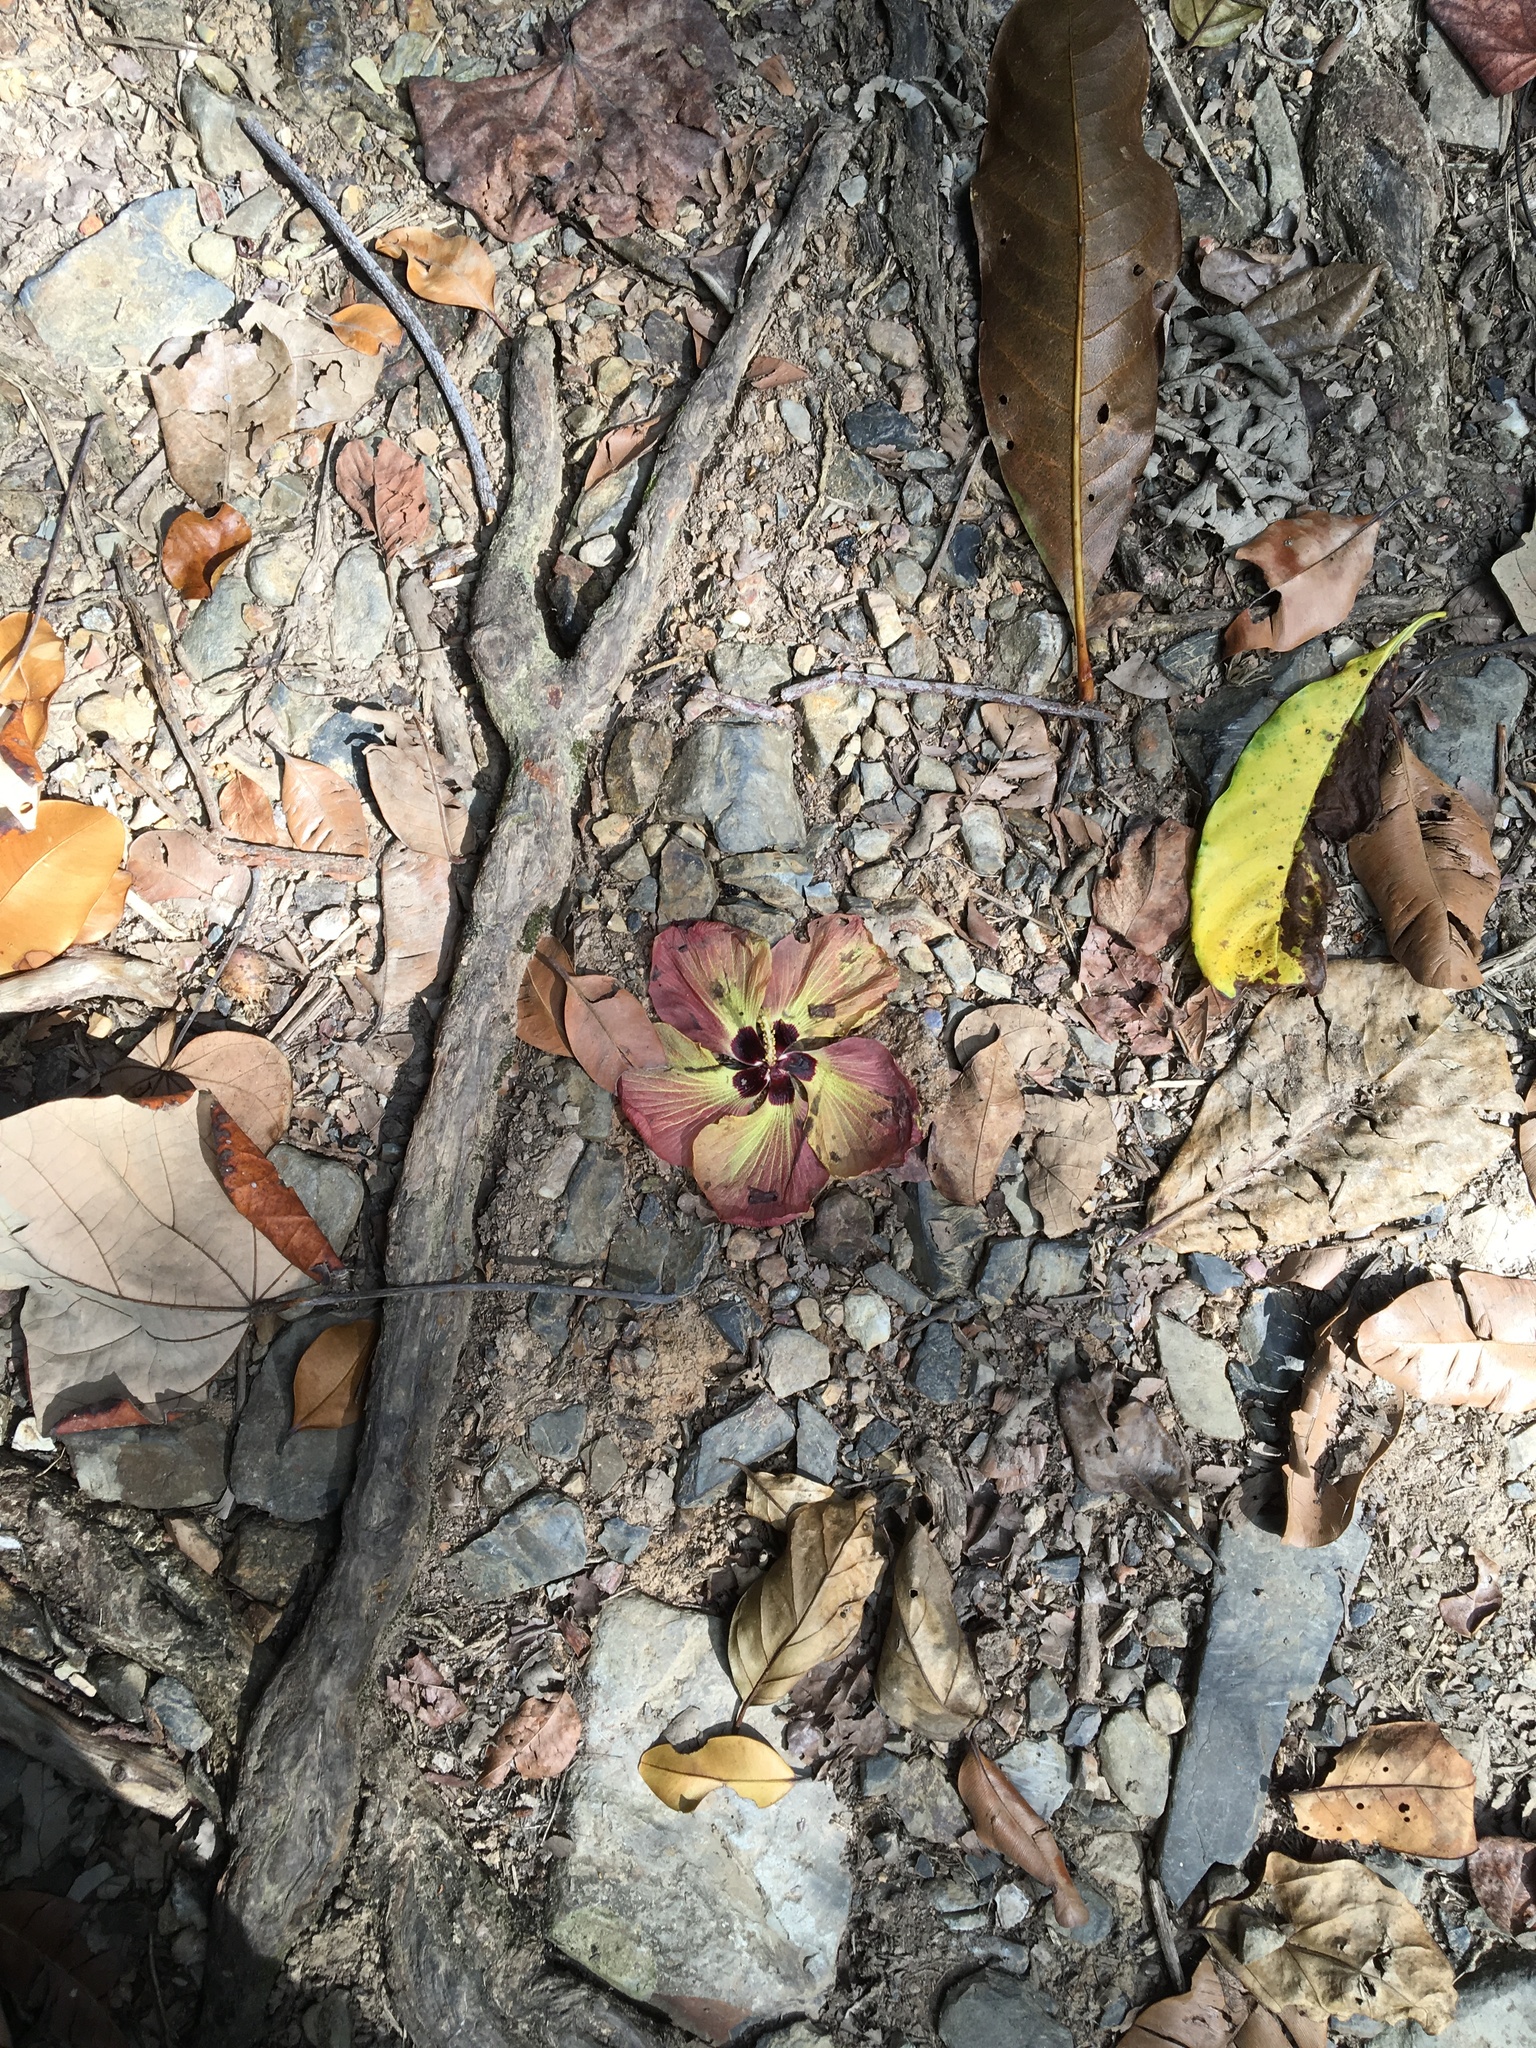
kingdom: Plantae
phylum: Tracheophyta
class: Magnoliopsida
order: Malvales
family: Malvaceae
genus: Talipariti
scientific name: Talipariti tiliaceum
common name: Sea hibiscus
